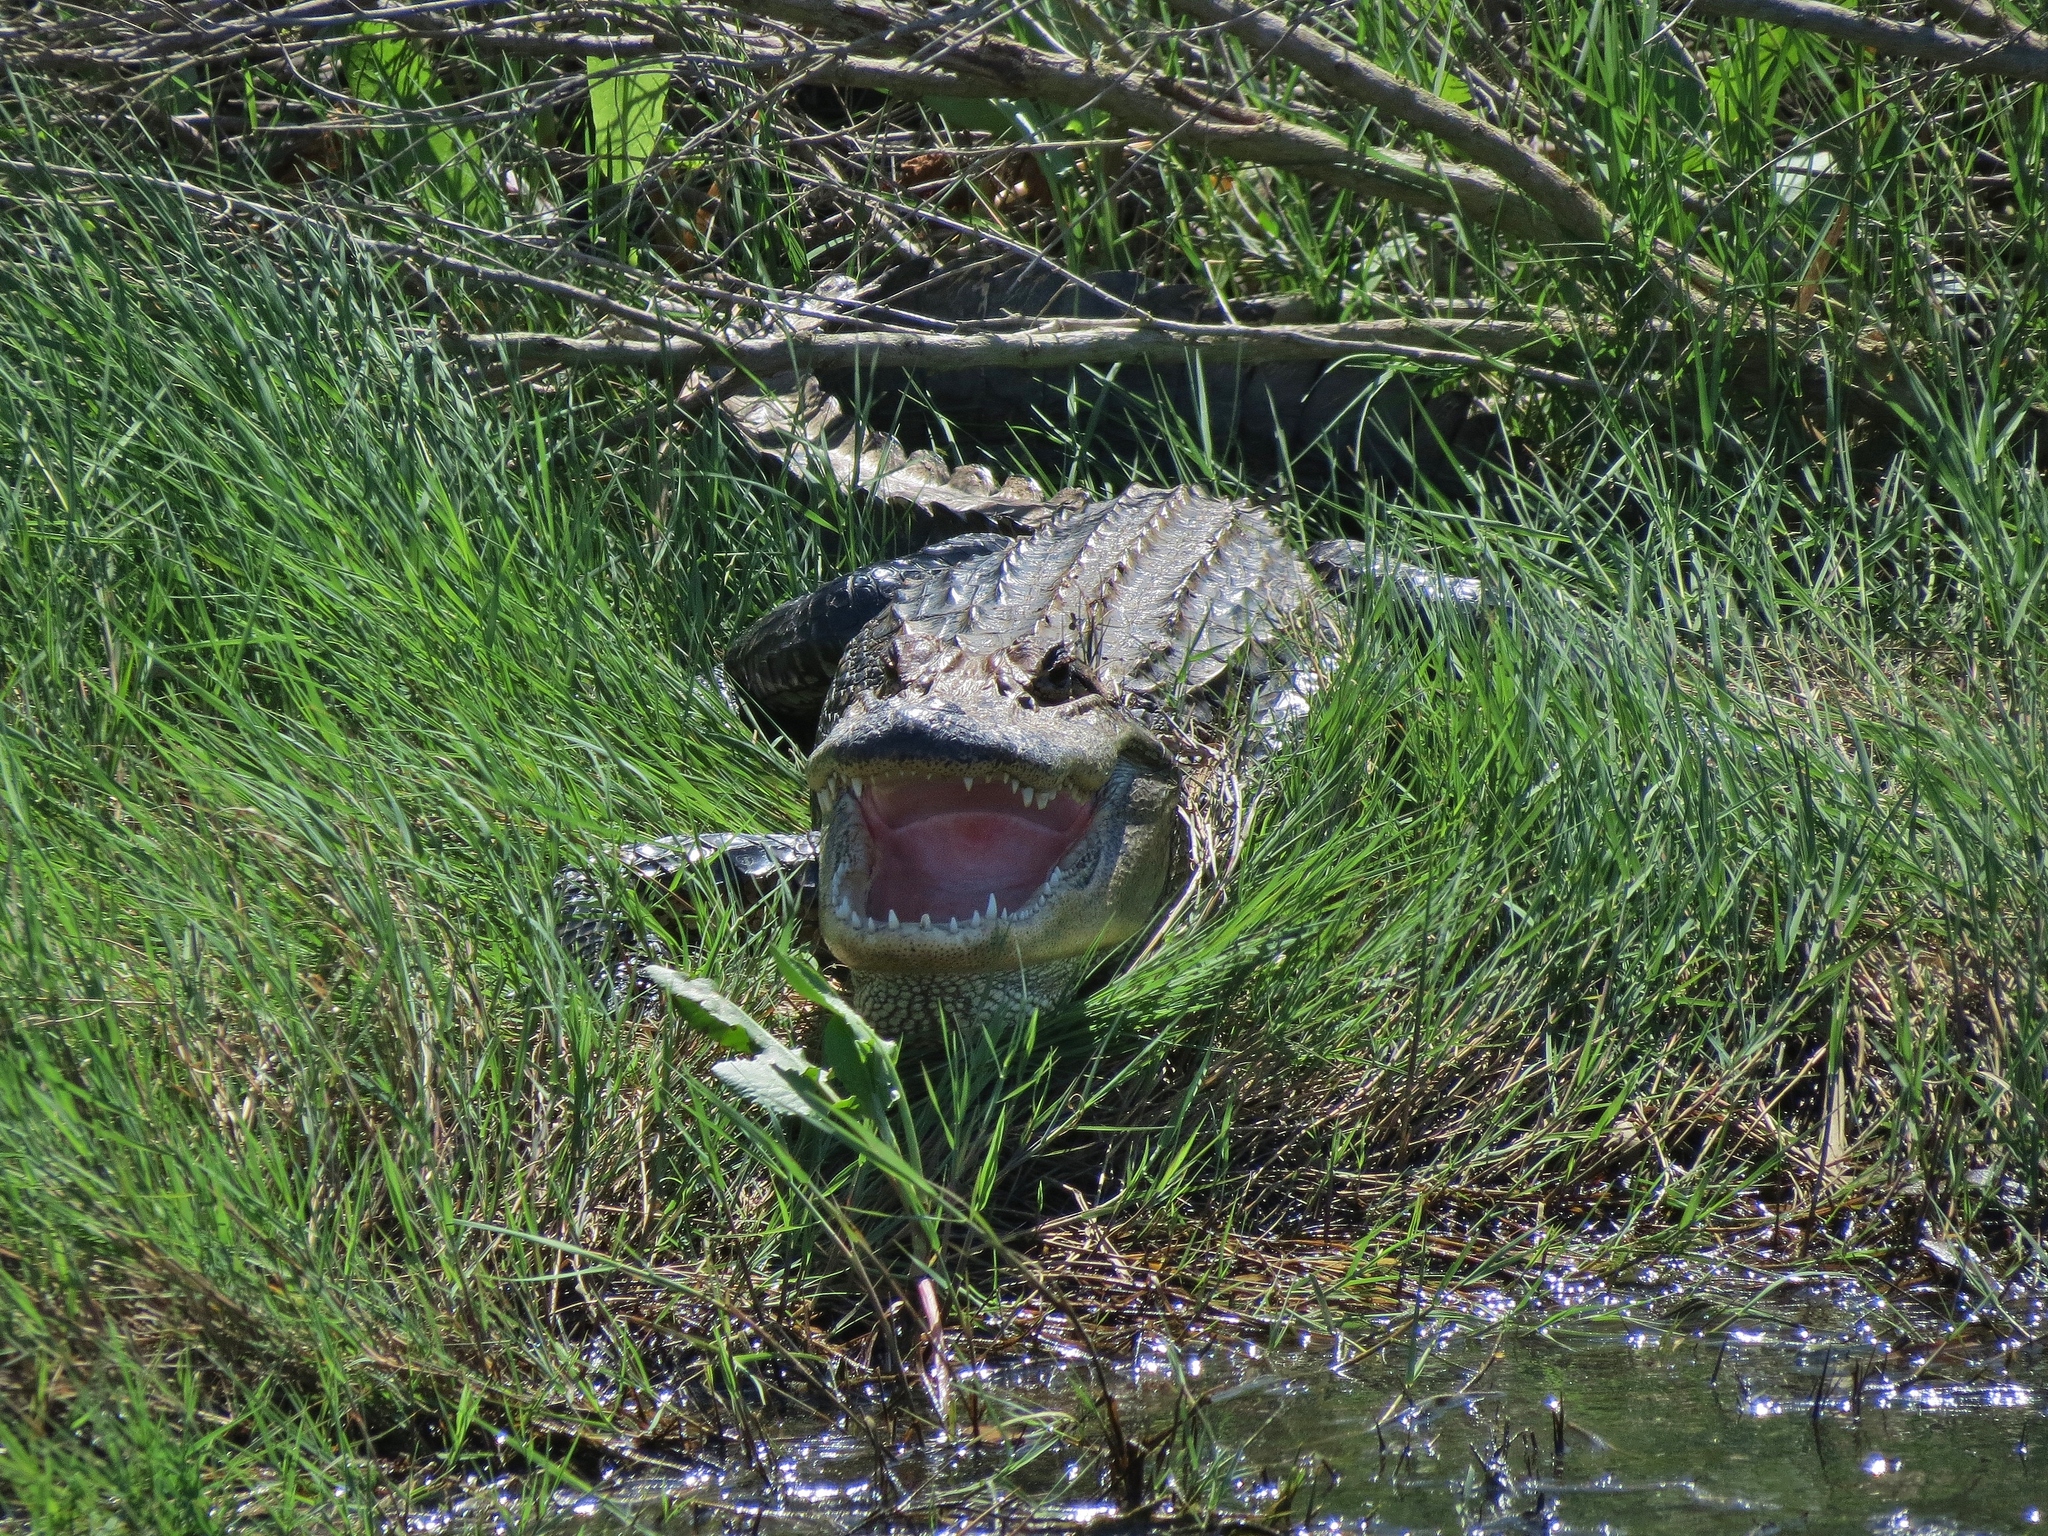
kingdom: Animalia
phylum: Chordata
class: Crocodylia
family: Alligatoridae
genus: Alligator
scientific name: Alligator mississippiensis
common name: American alligator
